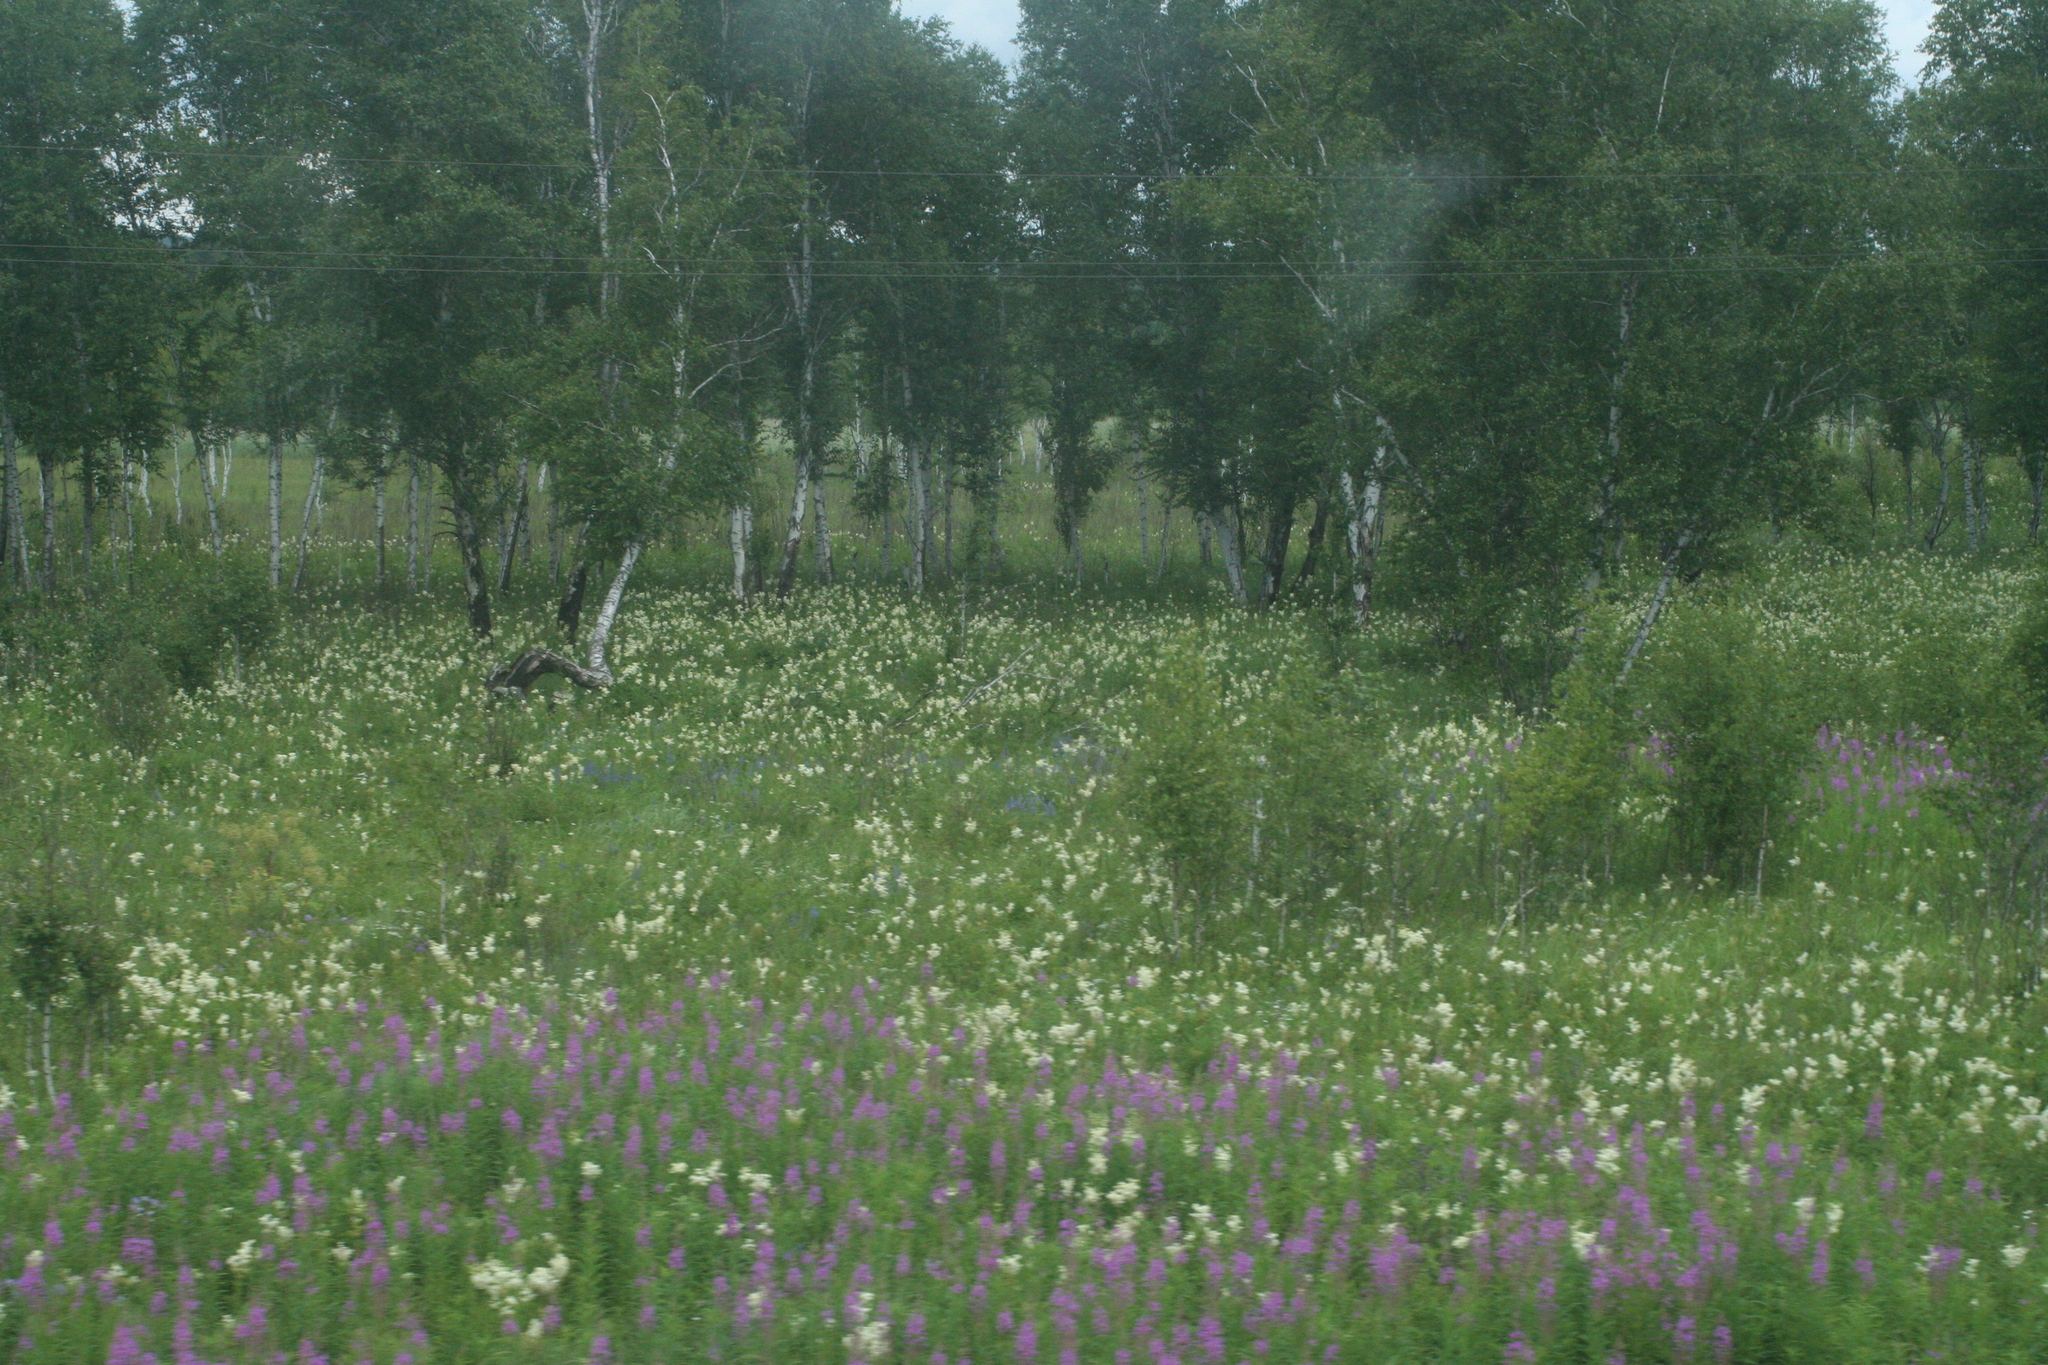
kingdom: Plantae
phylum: Tracheophyta
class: Magnoliopsida
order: Rosales
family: Rosaceae
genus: Filipendula
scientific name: Filipendula ulmaria
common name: Meadowsweet
